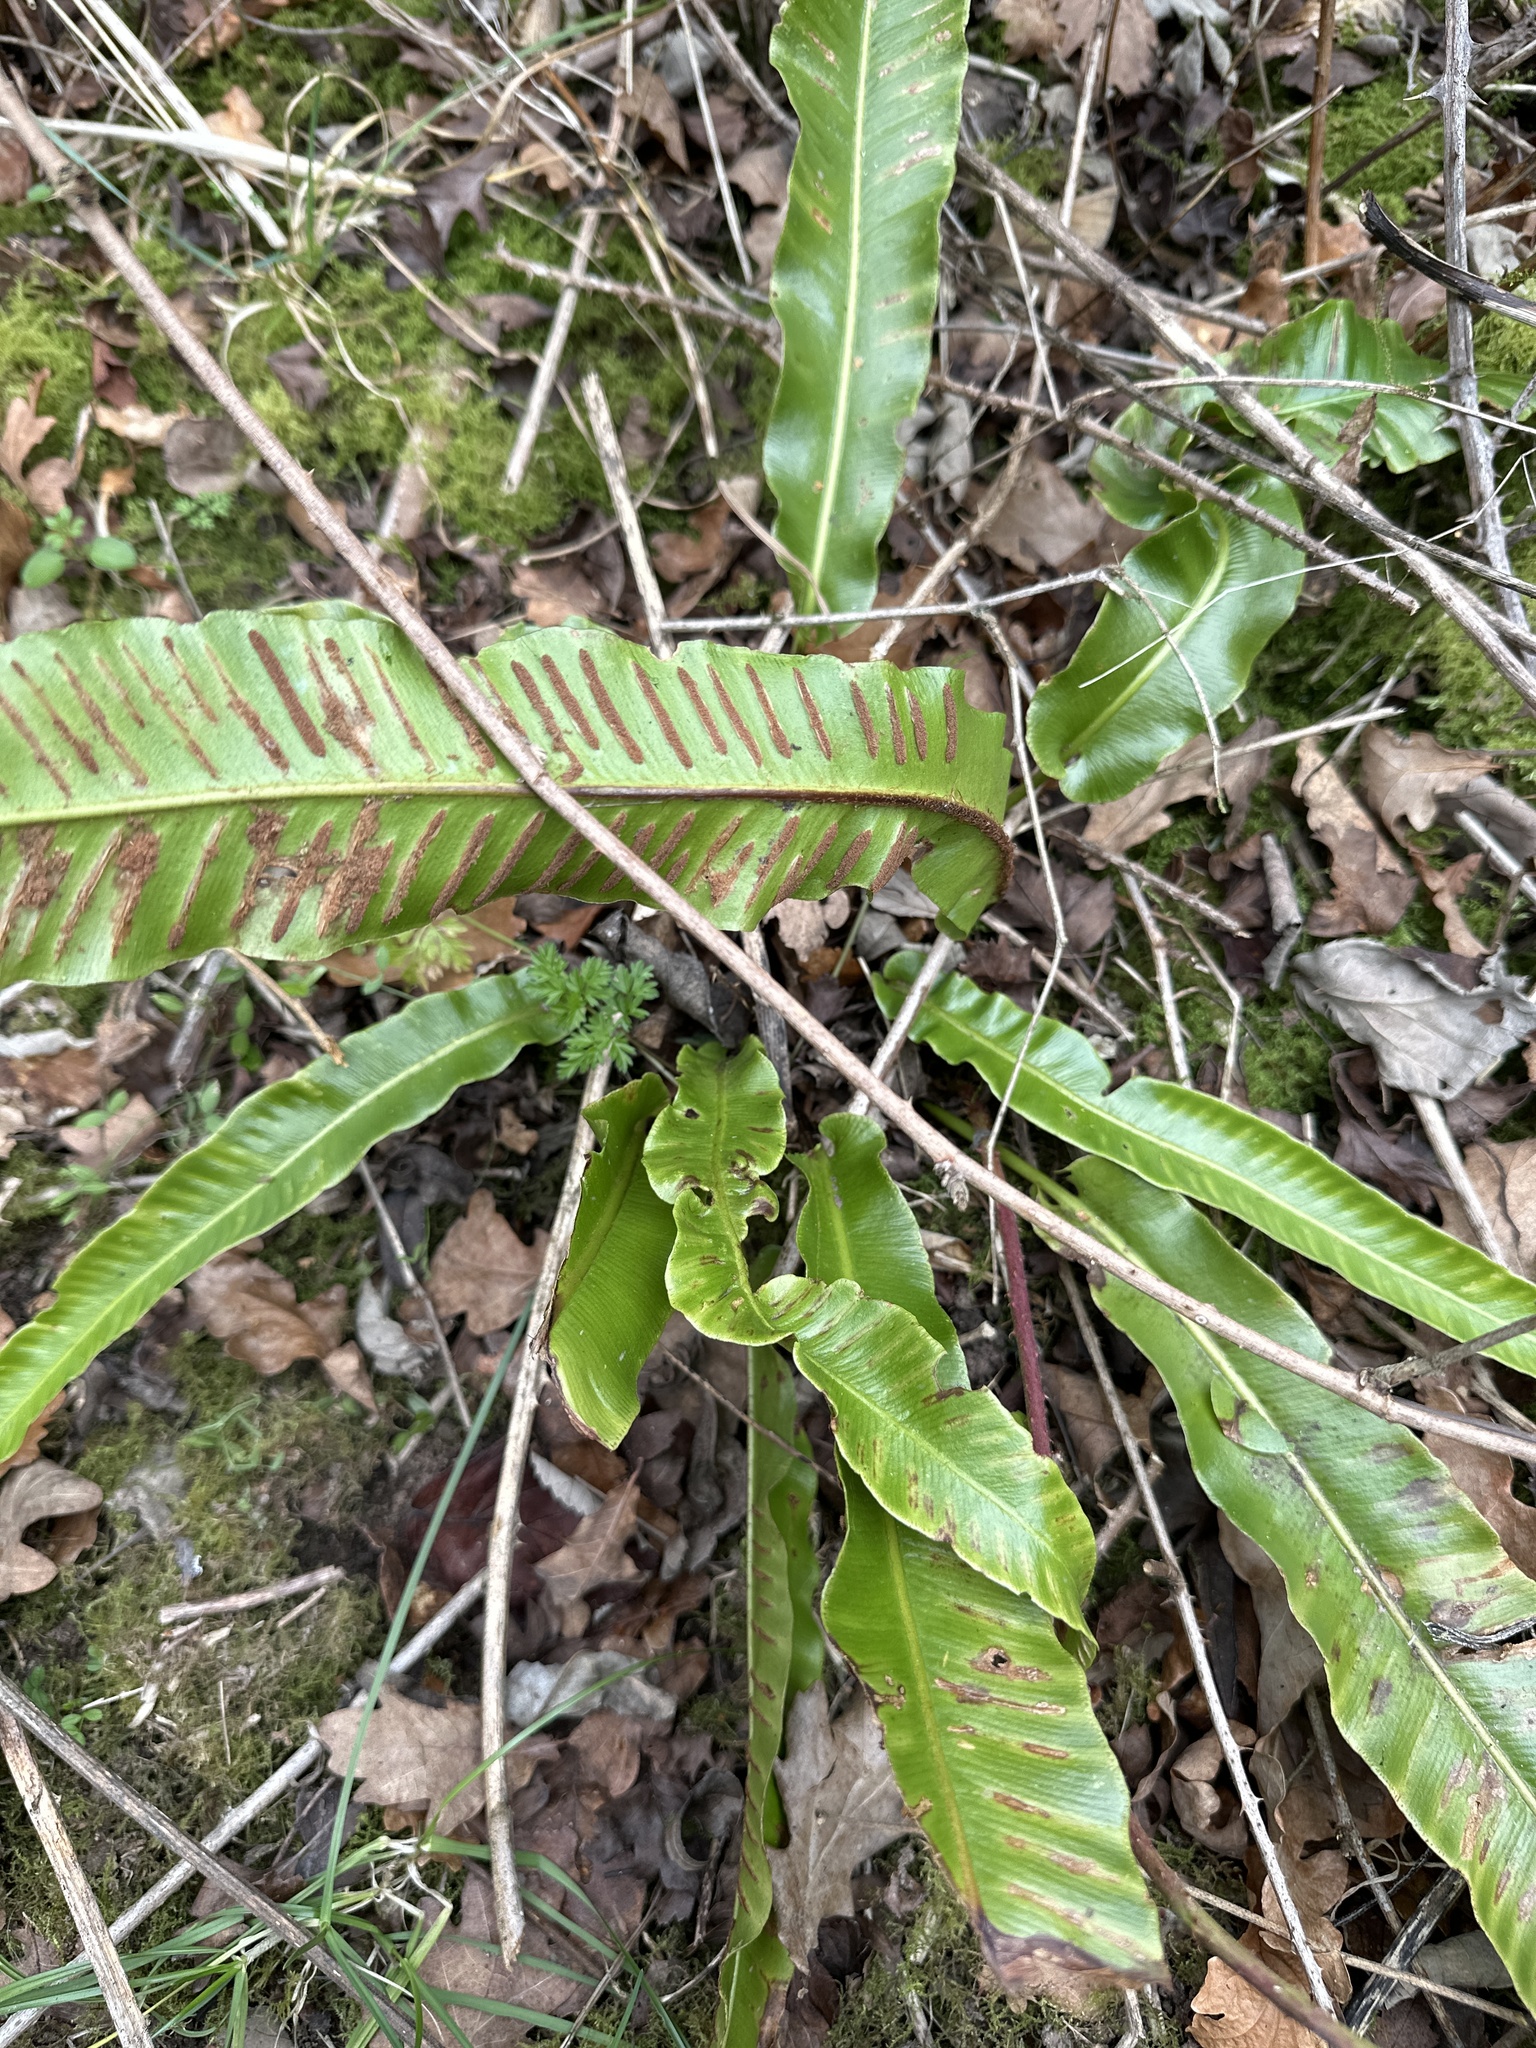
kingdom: Plantae
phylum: Tracheophyta
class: Polypodiopsida
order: Polypodiales
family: Aspleniaceae
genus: Asplenium
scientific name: Asplenium scolopendrium
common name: Hart's-tongue fern
